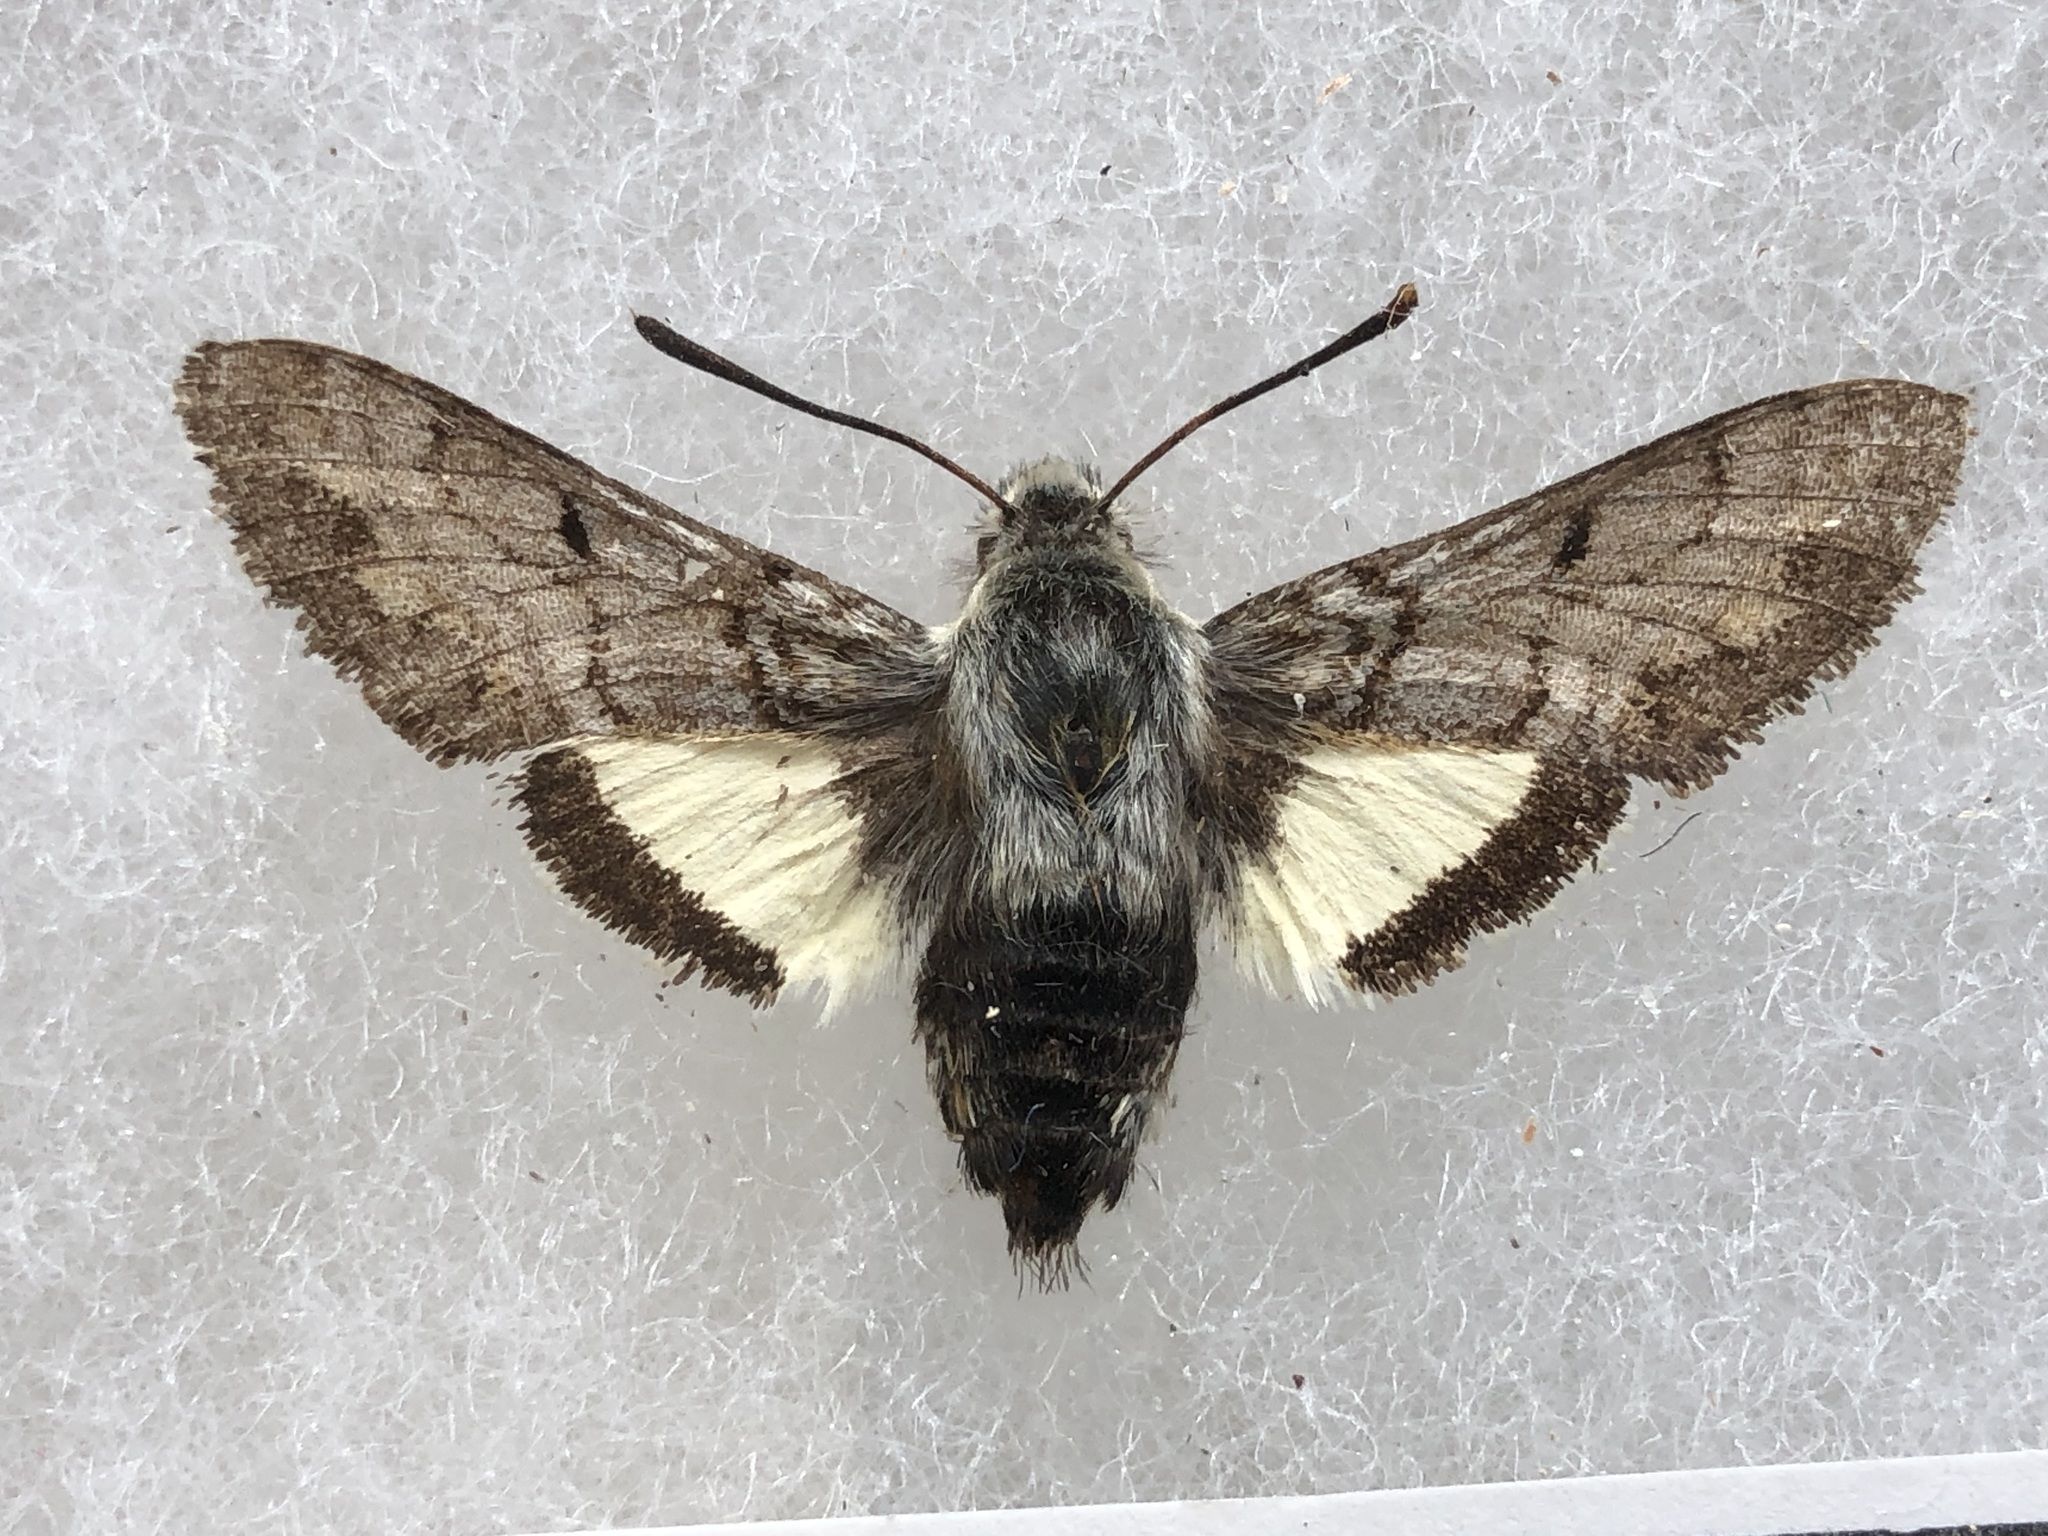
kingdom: Animalia
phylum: Arthropoda
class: Insecta
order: Lepidoptera
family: Sphingidae
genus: Euproserpinus
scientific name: Euproserpinus phaeton
